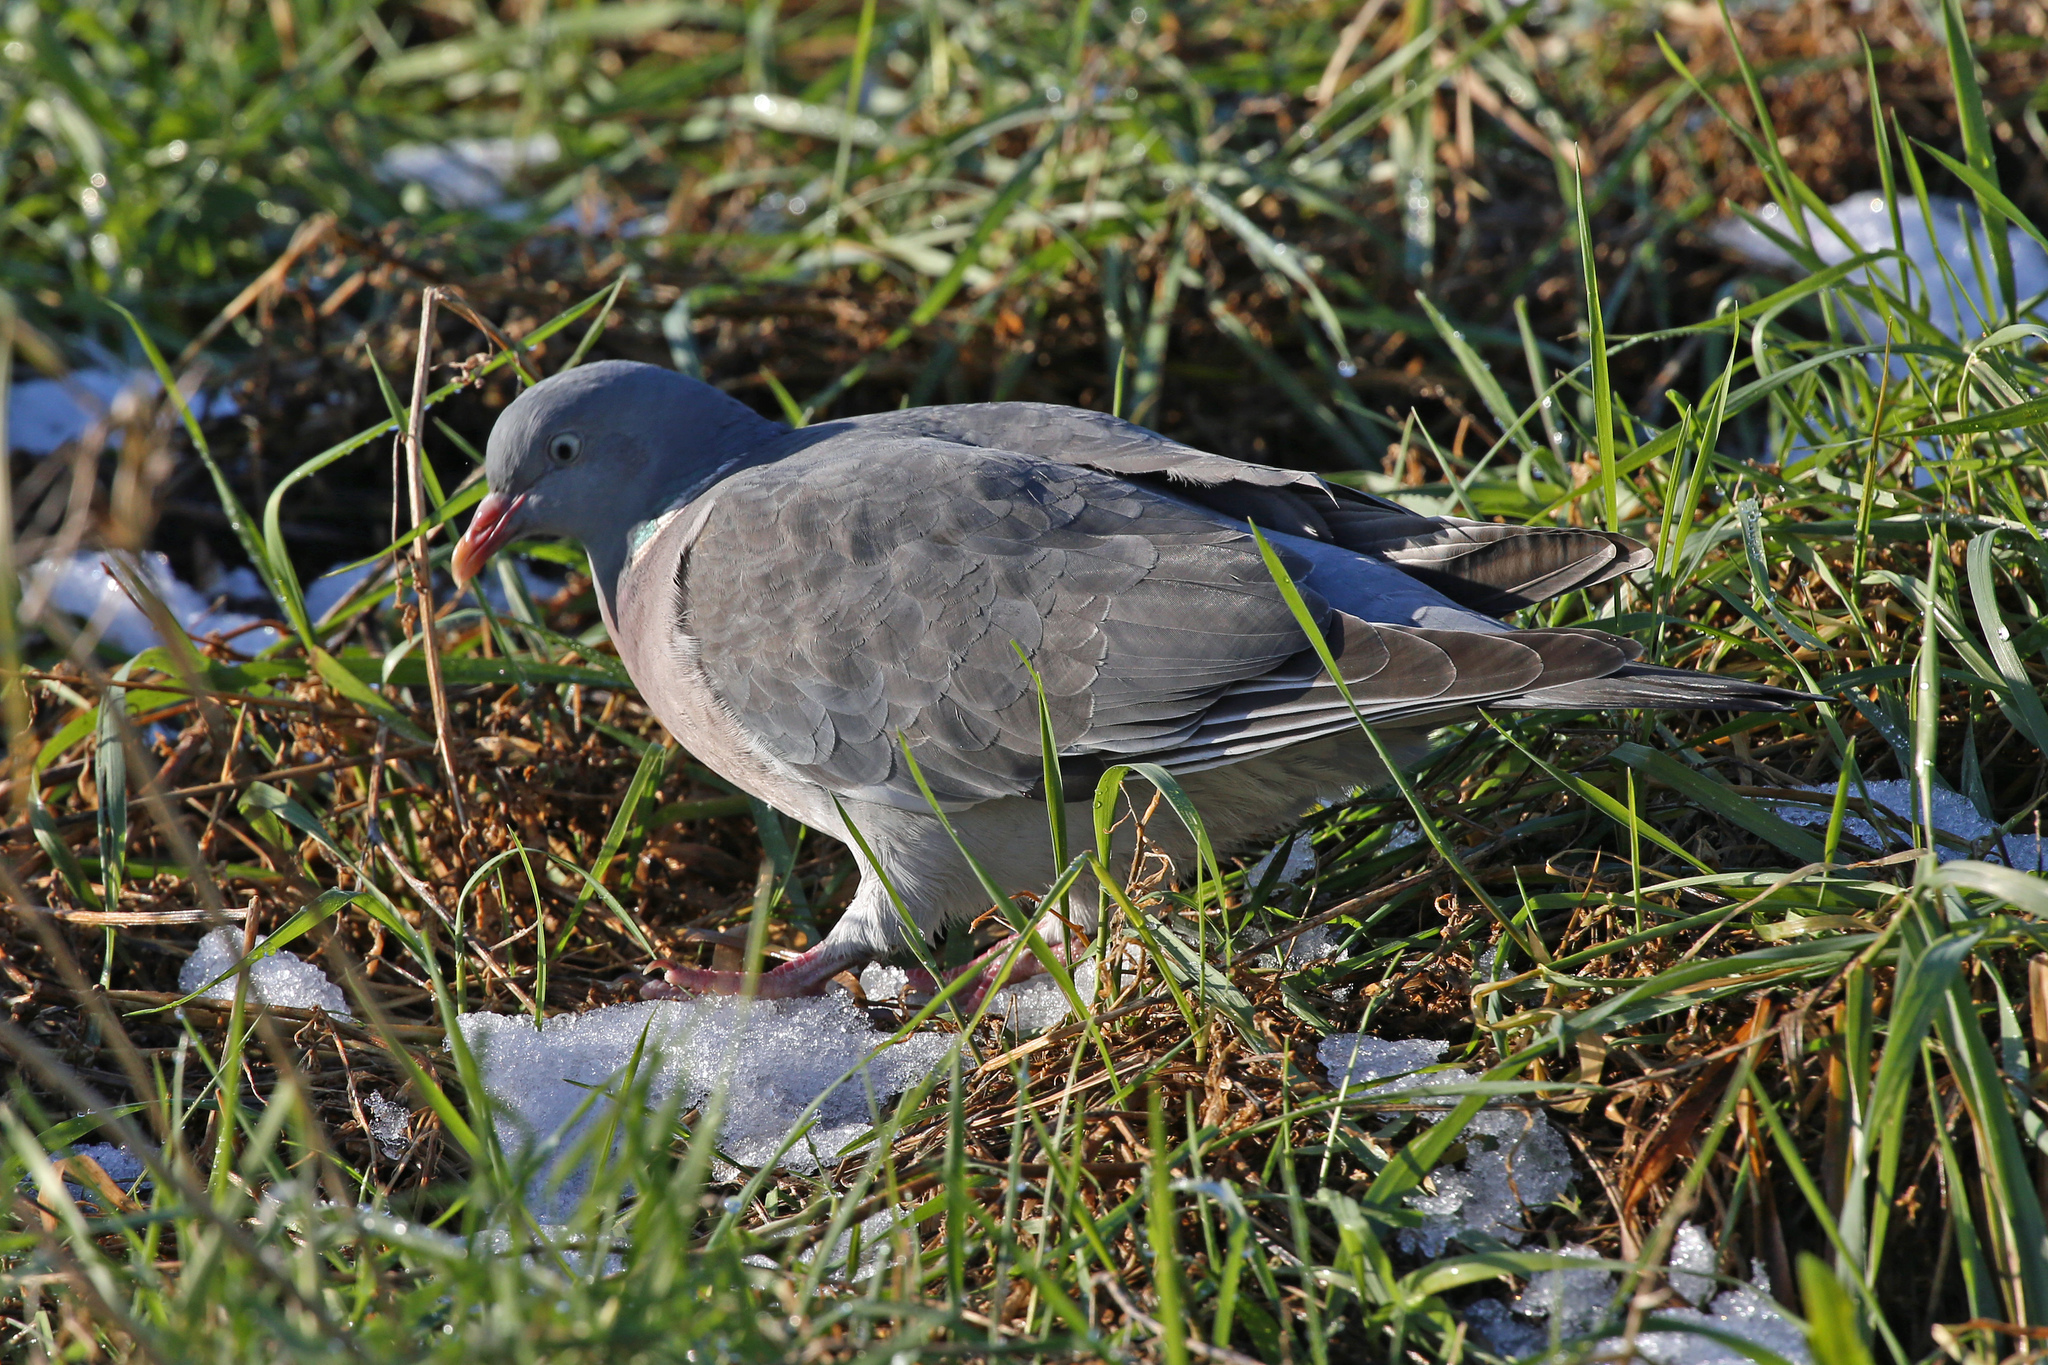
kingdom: Animalia
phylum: Chordata
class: Aves
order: Columbiformes
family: Columbidae
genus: Columba
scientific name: Columba palumbus
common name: Common wood pigeon
